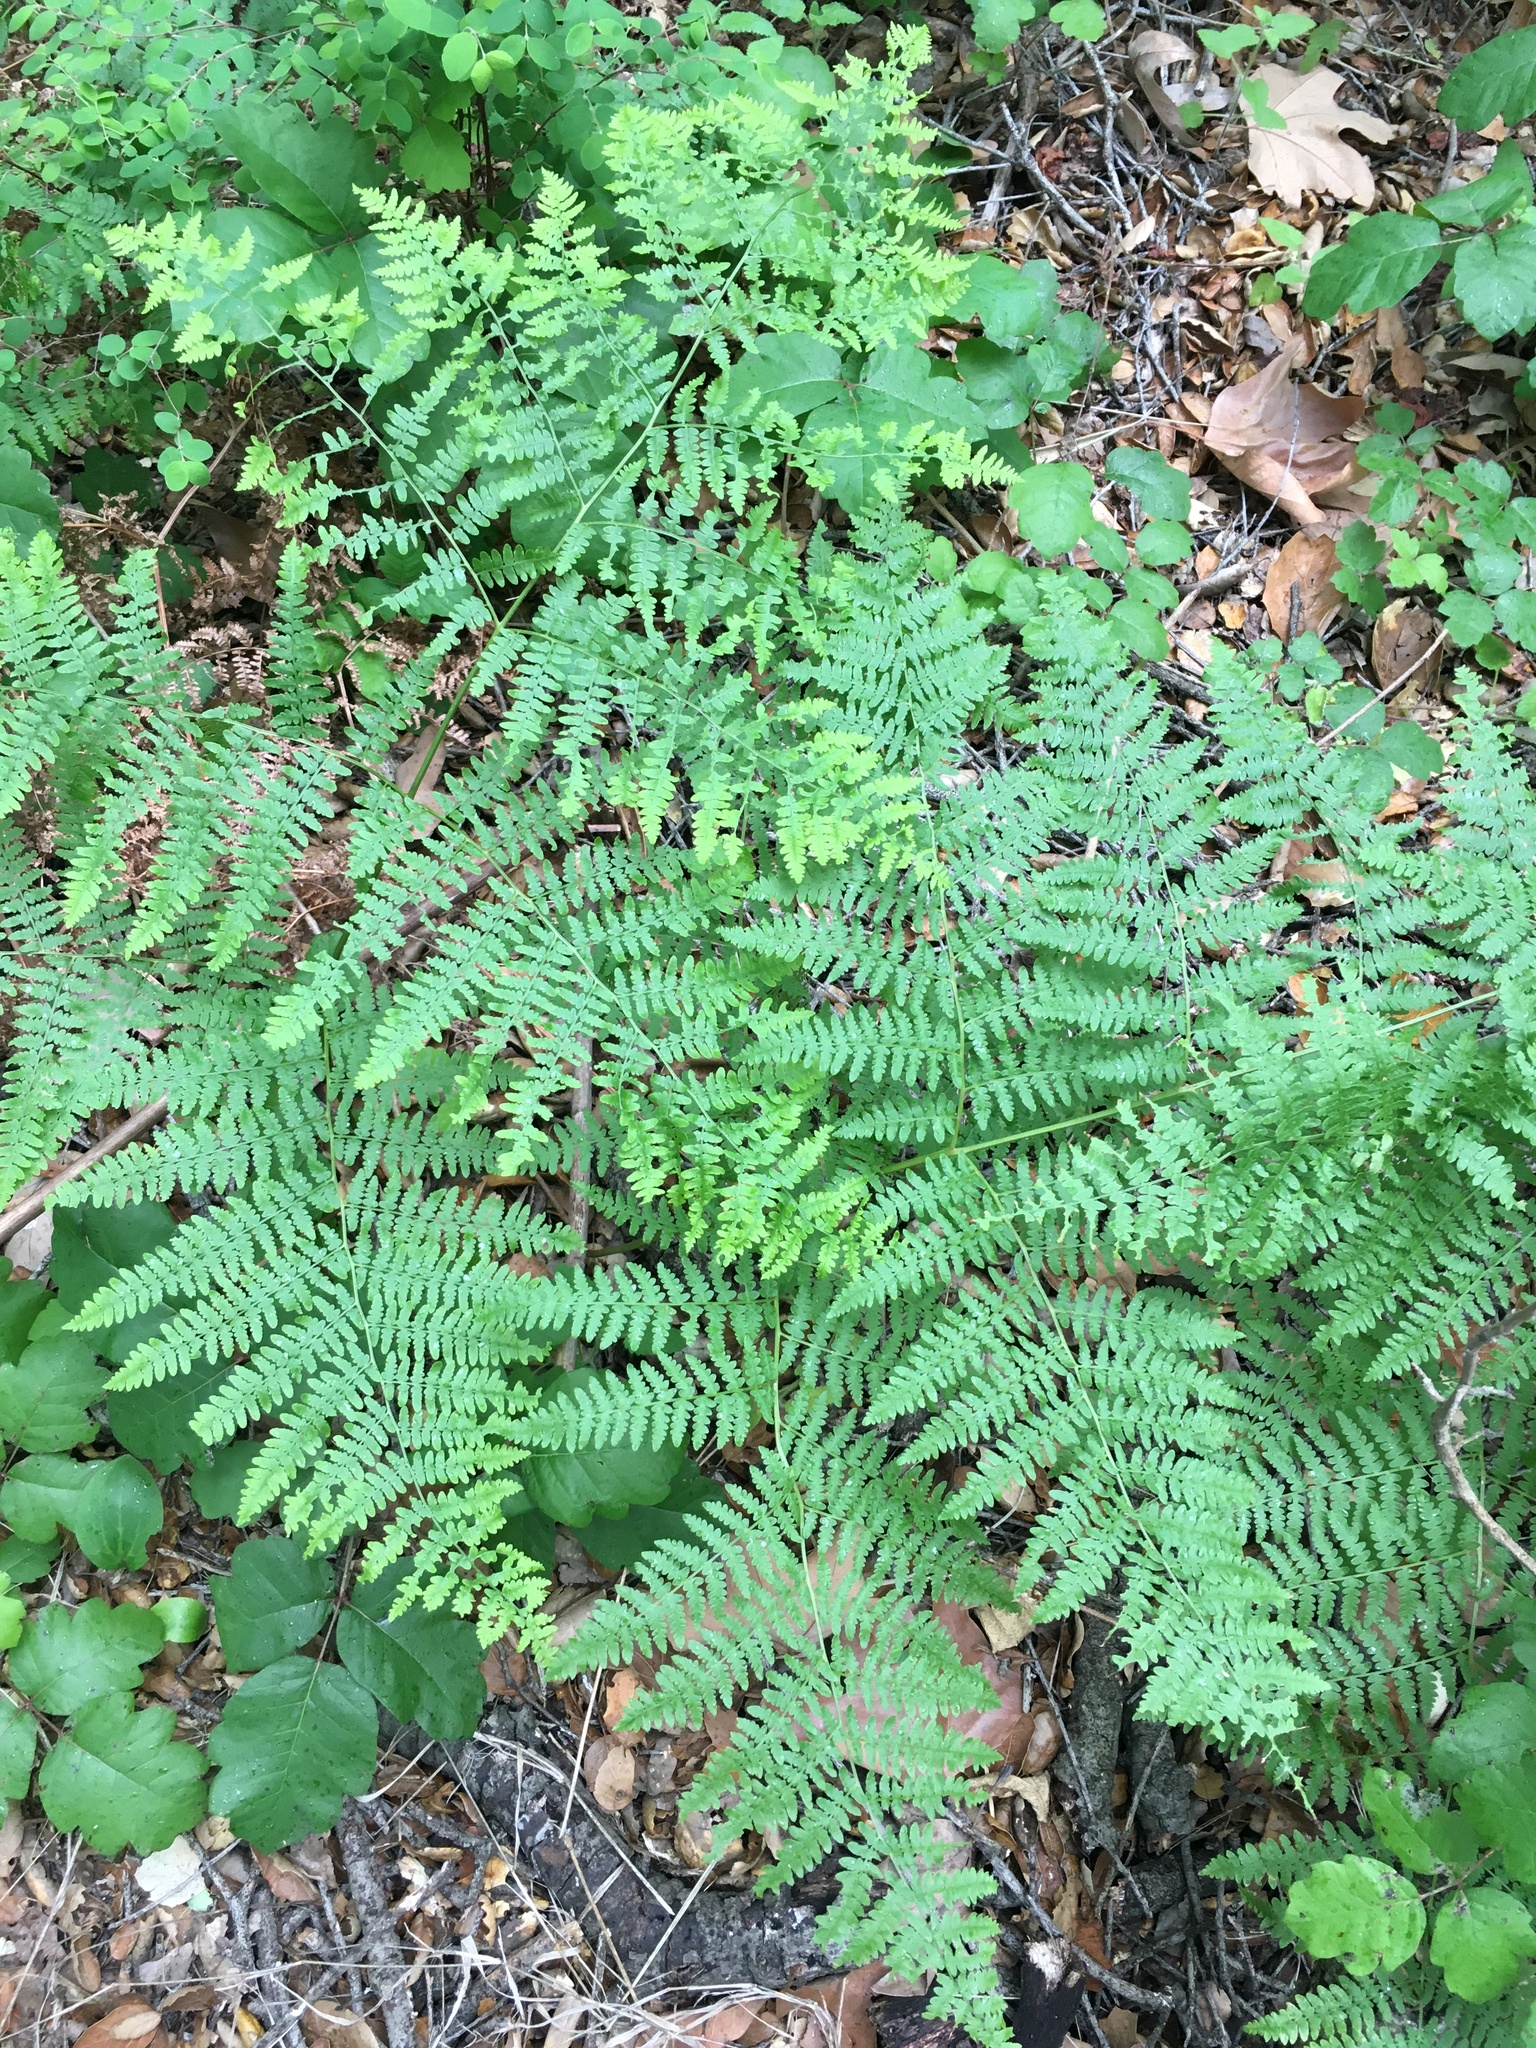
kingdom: Plantae
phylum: Tracheophyta
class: Polypodiopsida
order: Polypodiales
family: Dennstaedtiaceae
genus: Pteridium
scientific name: Pteridium aquilinum
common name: Bracken
